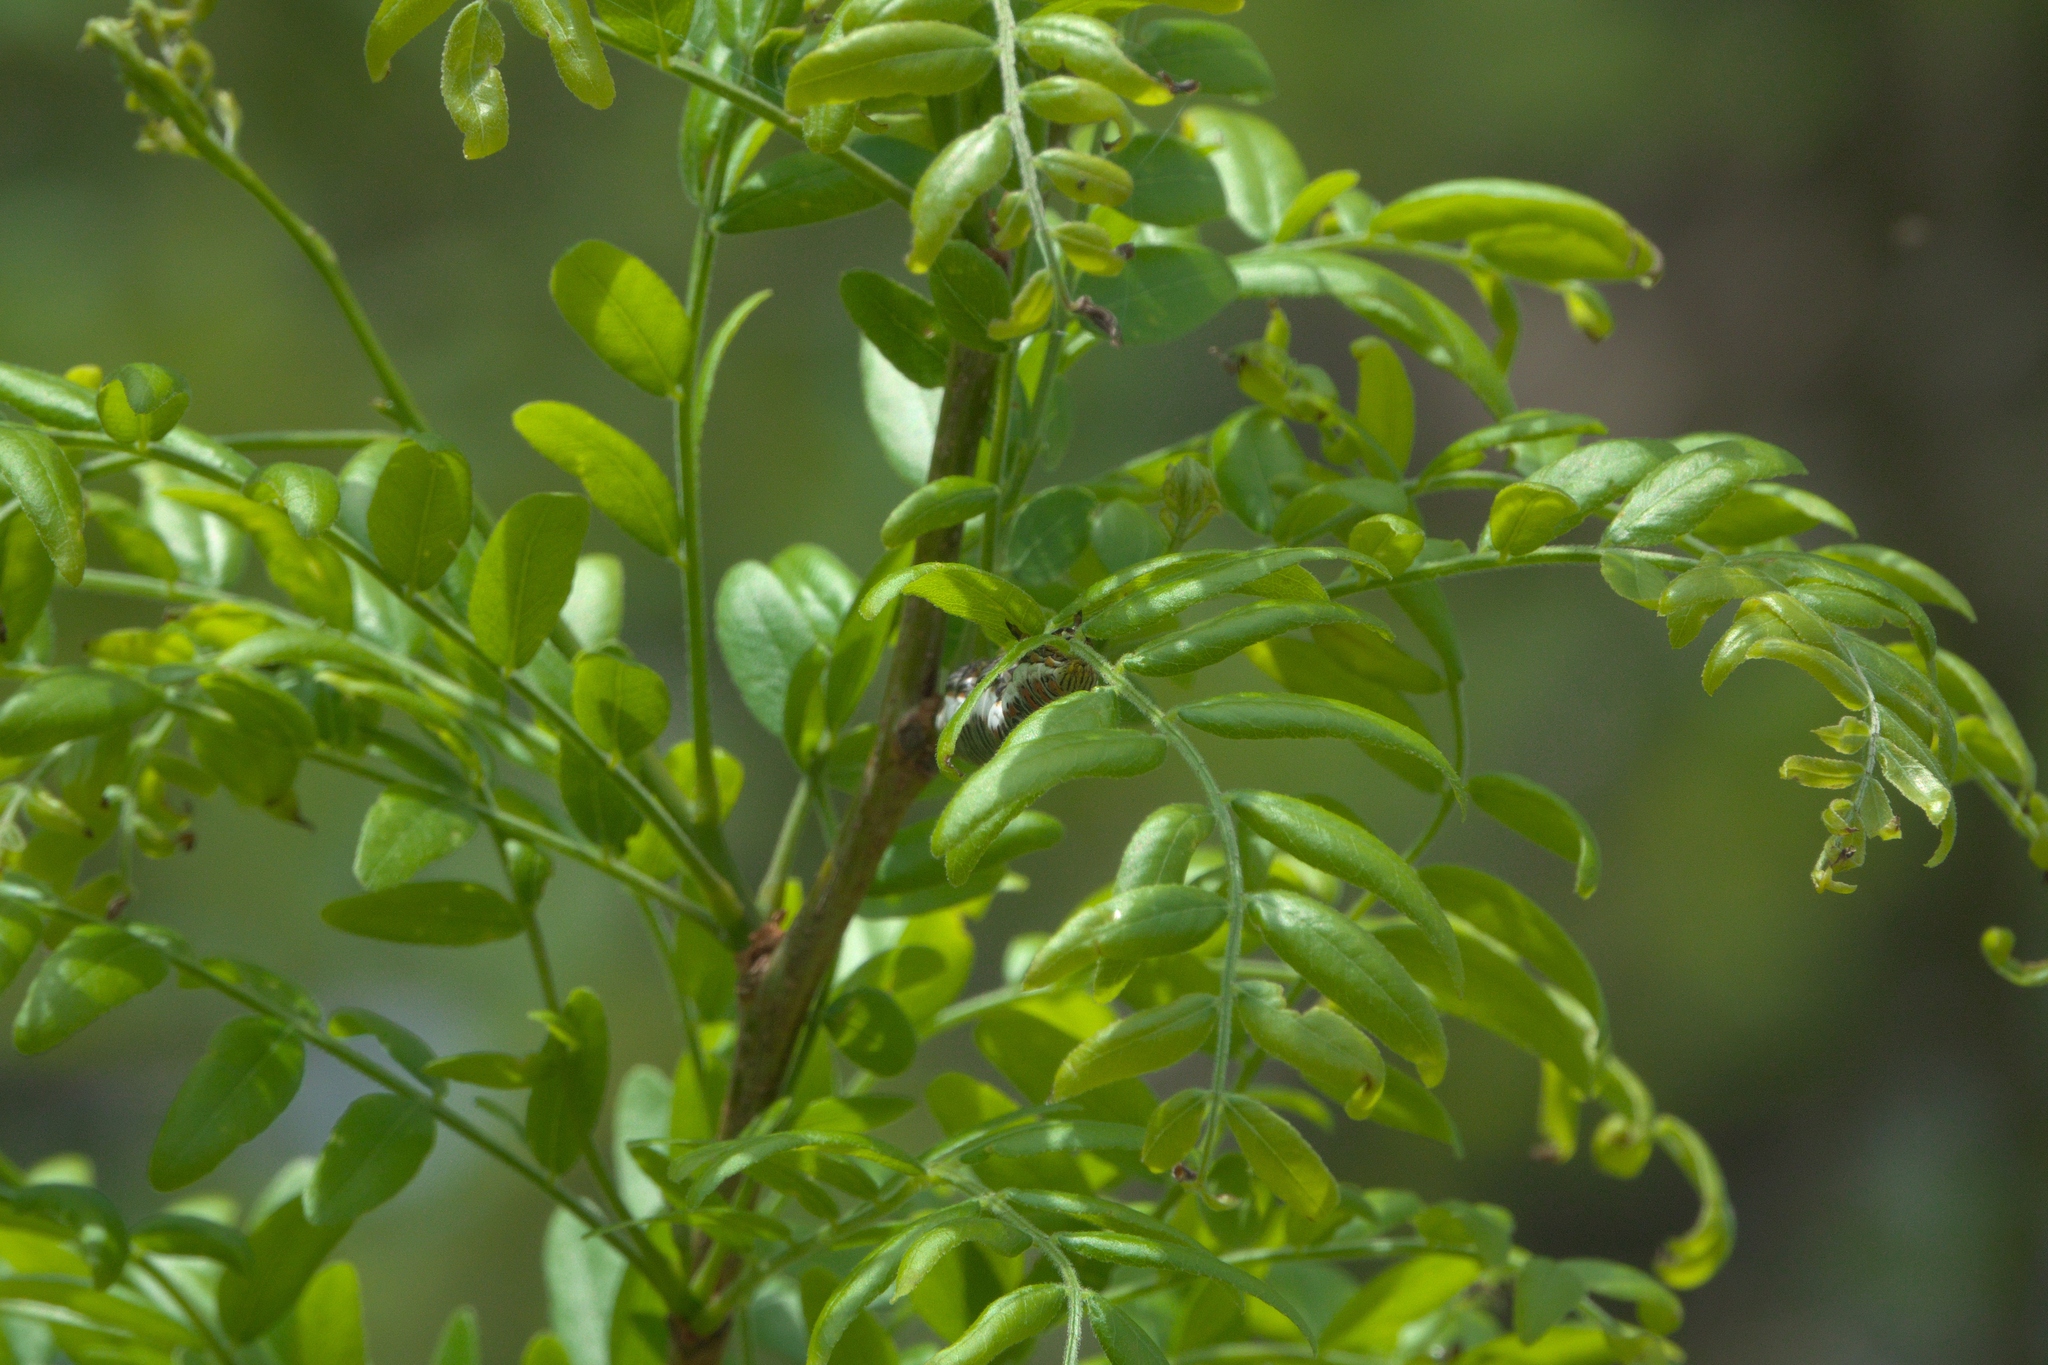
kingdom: Plantae
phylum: Tracheophyta
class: Magnoliopsida
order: Fabales
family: Fabaceae
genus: Gleditsia
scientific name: Gleditsia triacanthos
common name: Common honeylocust
